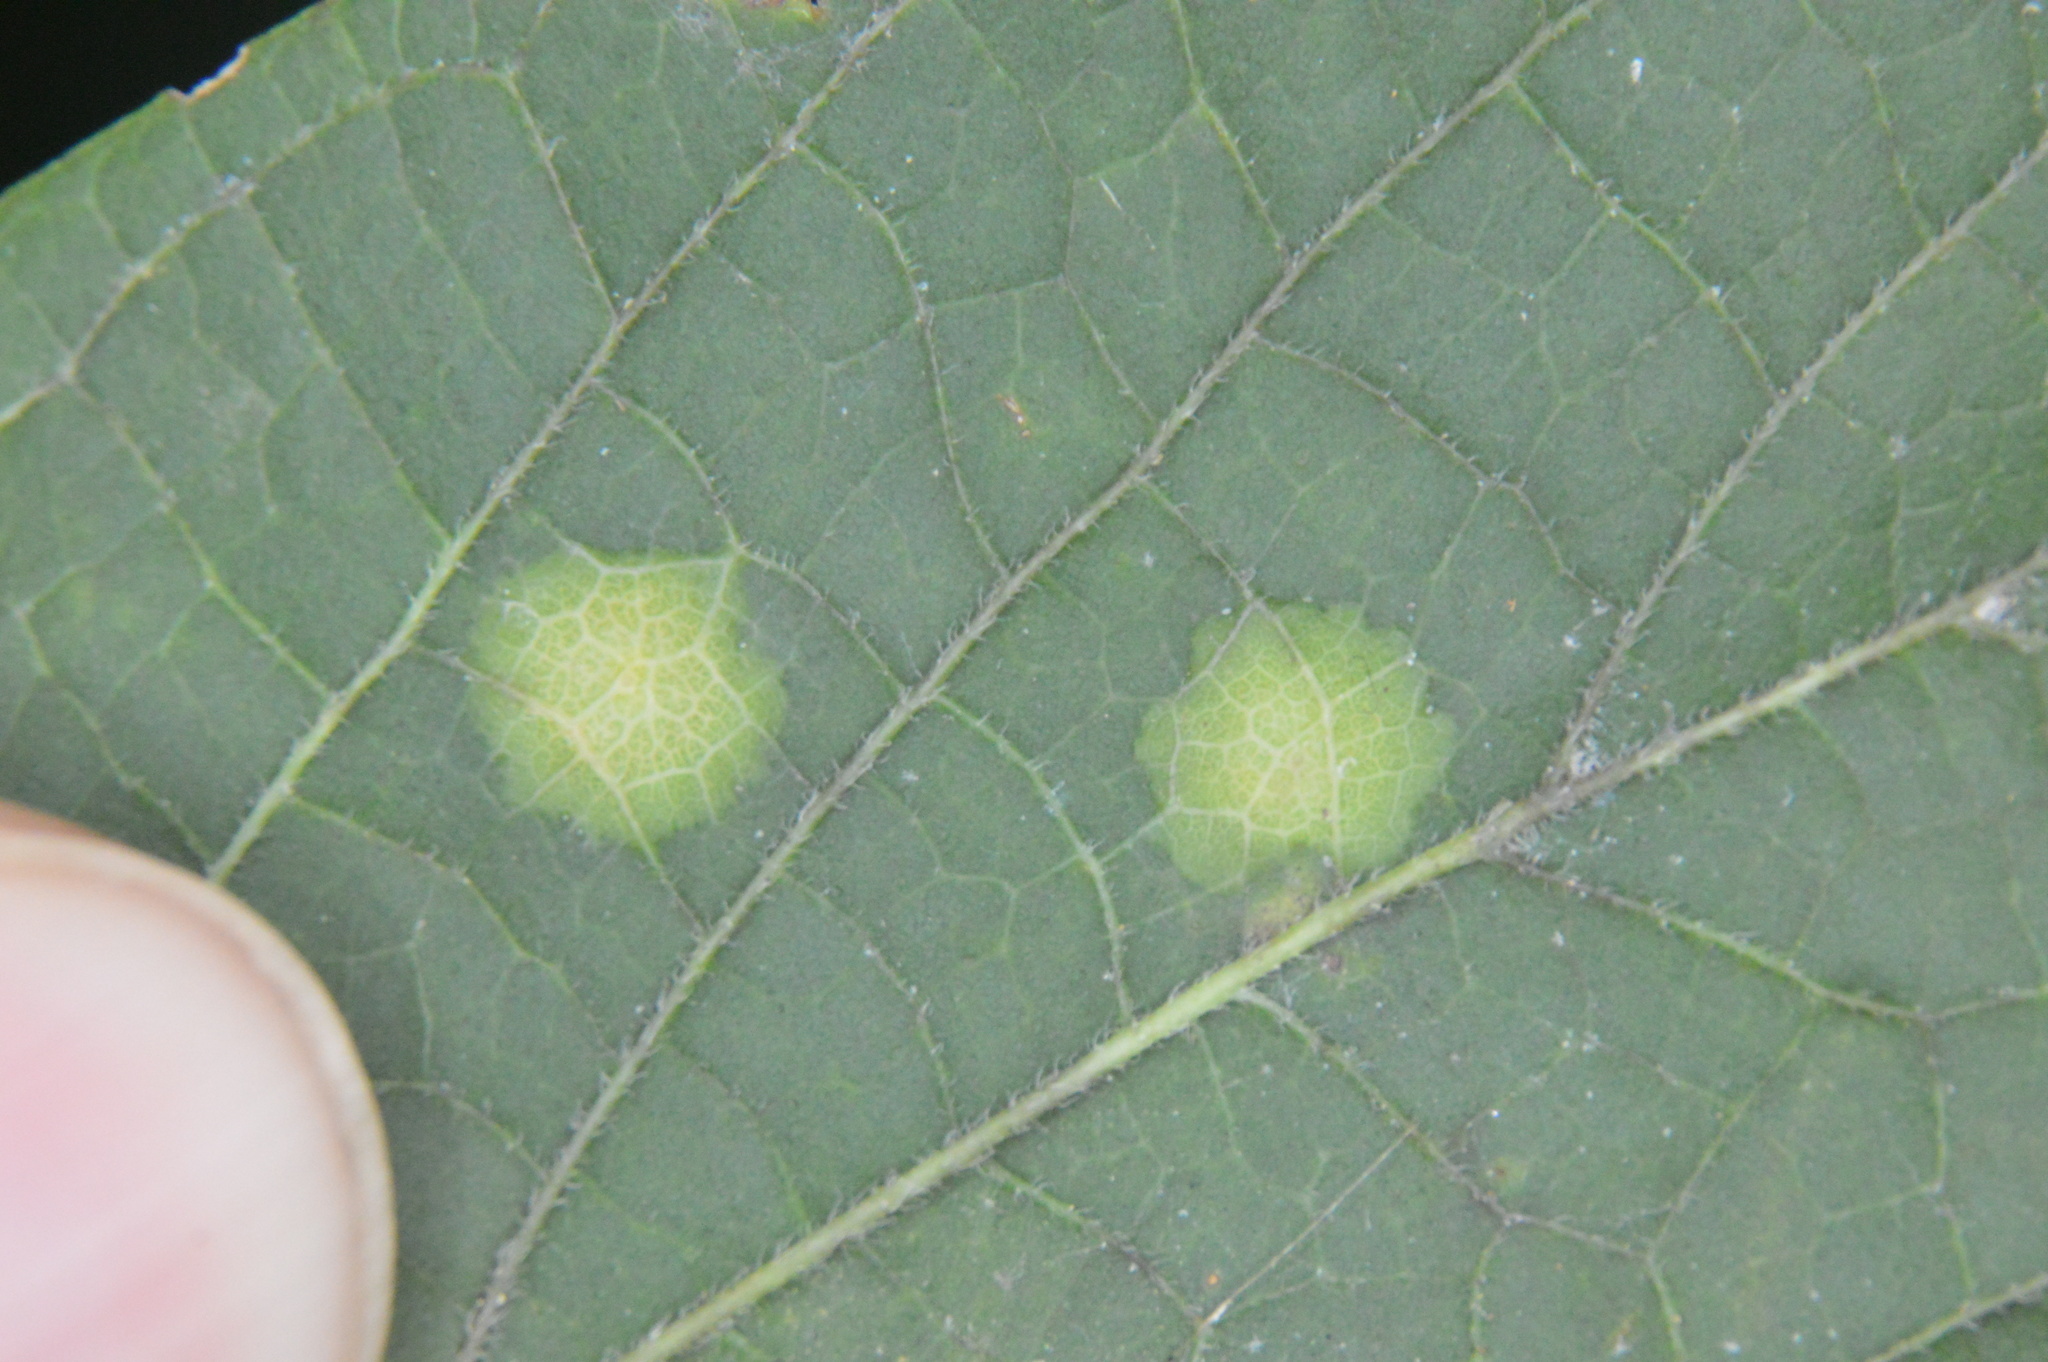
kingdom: Animalia
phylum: Arthropoda
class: Insecta
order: Hemiptera
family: Aphalaridae
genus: Pachypsylla
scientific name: Pachypsylla celtidisvesicula
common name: Hackberry blister gall psyllid
